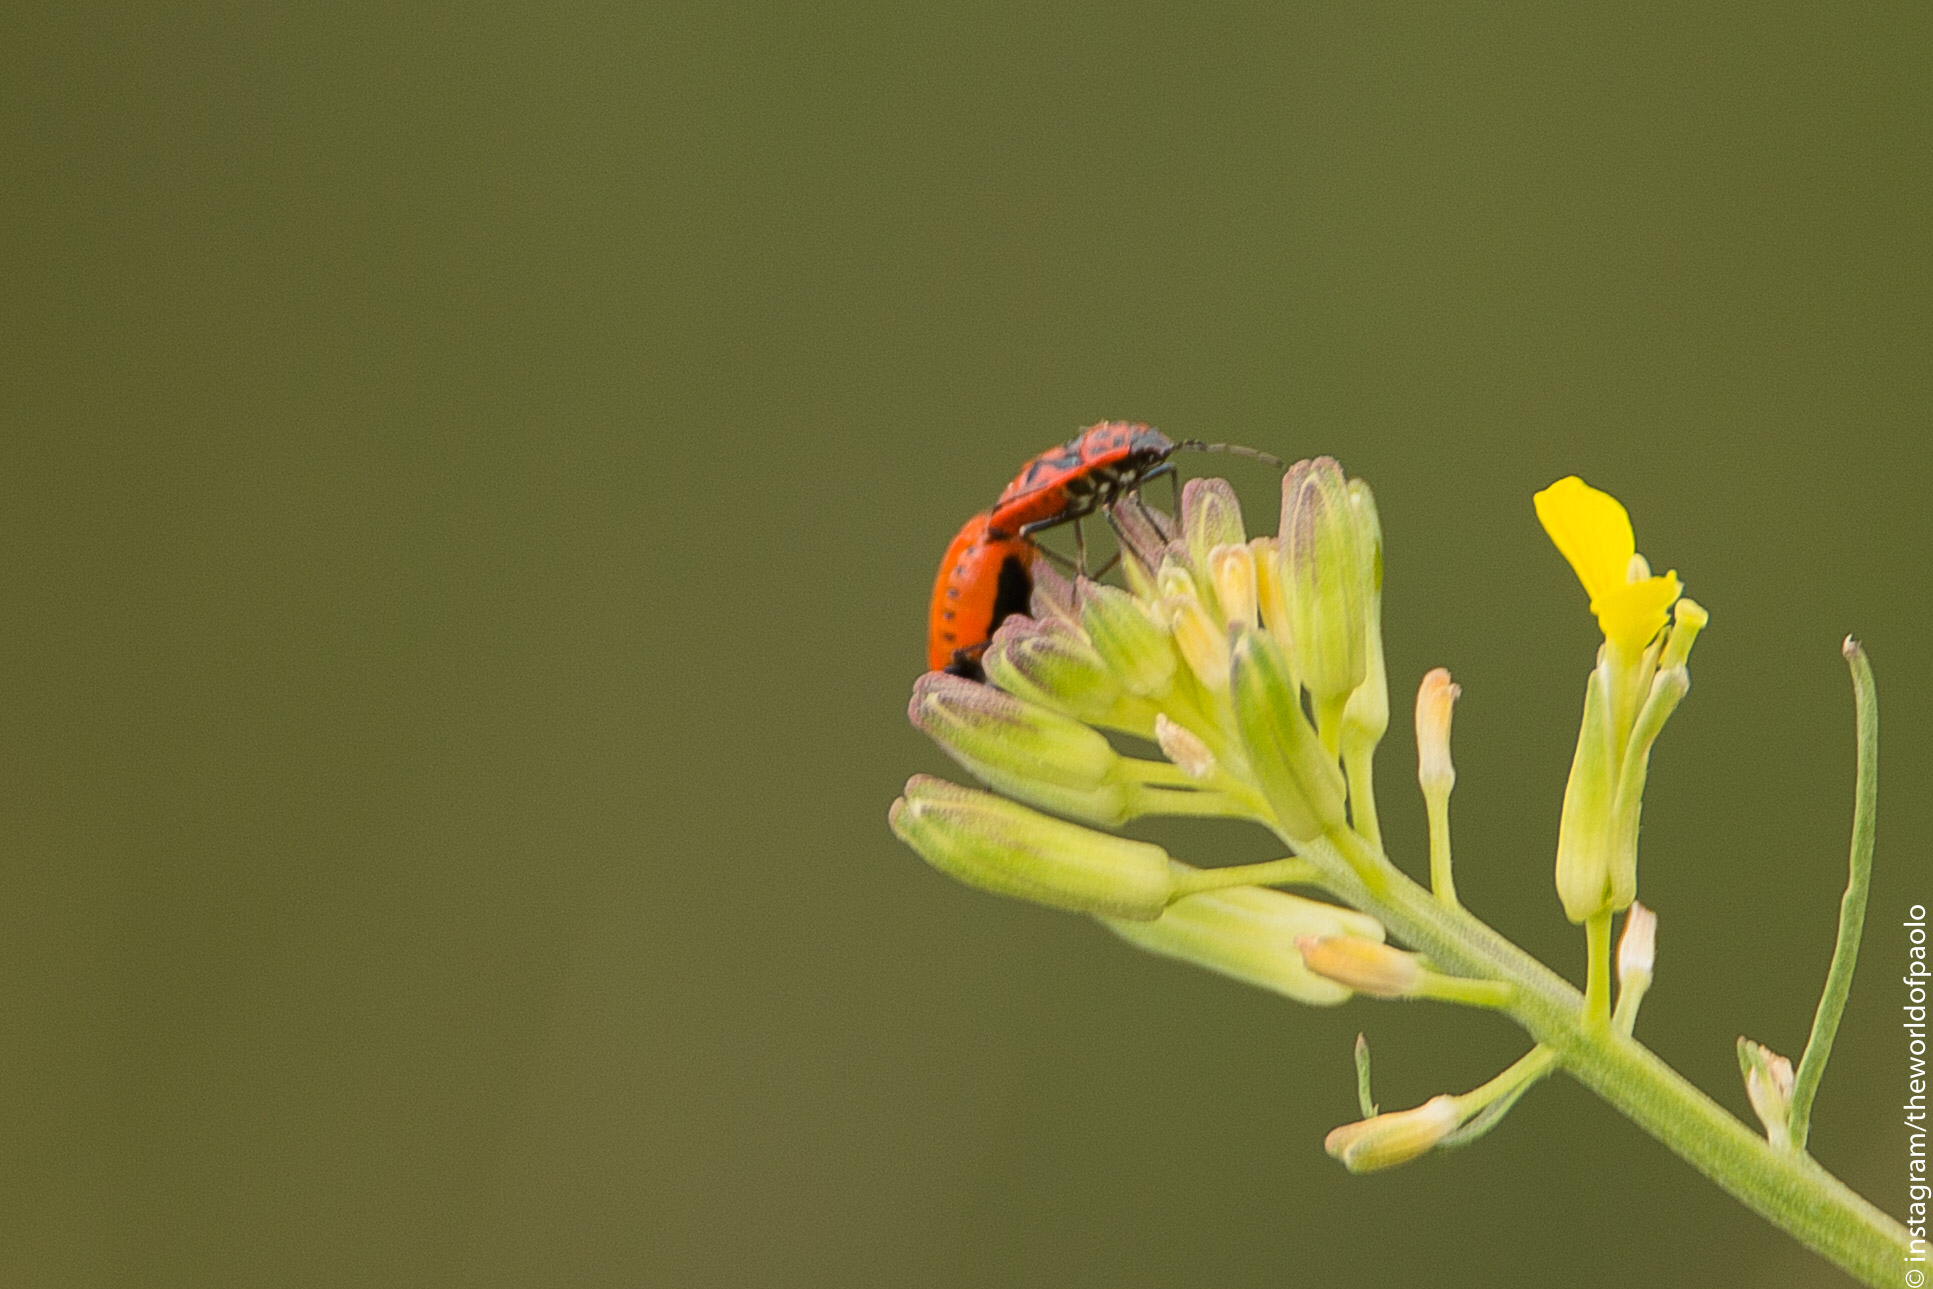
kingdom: Animalia
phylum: Arthropoda
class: Insecta
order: Hemiptera
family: Pentatomidae
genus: Eurydema
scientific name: Eurydema ornata
